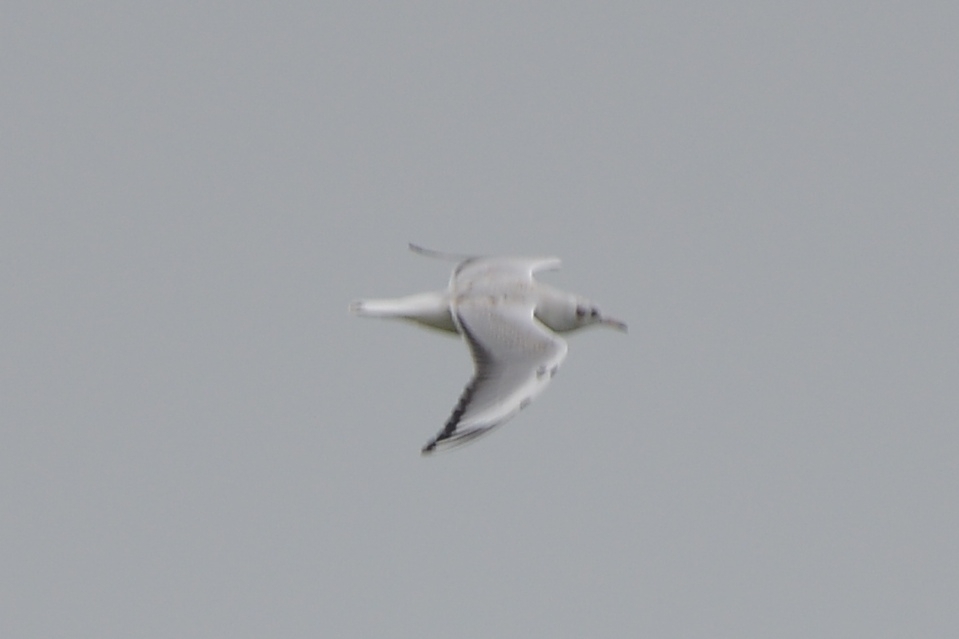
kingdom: Animalia
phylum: Chordata
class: Aves
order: Charadriiformes
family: Laridae
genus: Chroicocephalus
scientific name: Chroicocephalus ridibundus
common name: Black-headed gull
